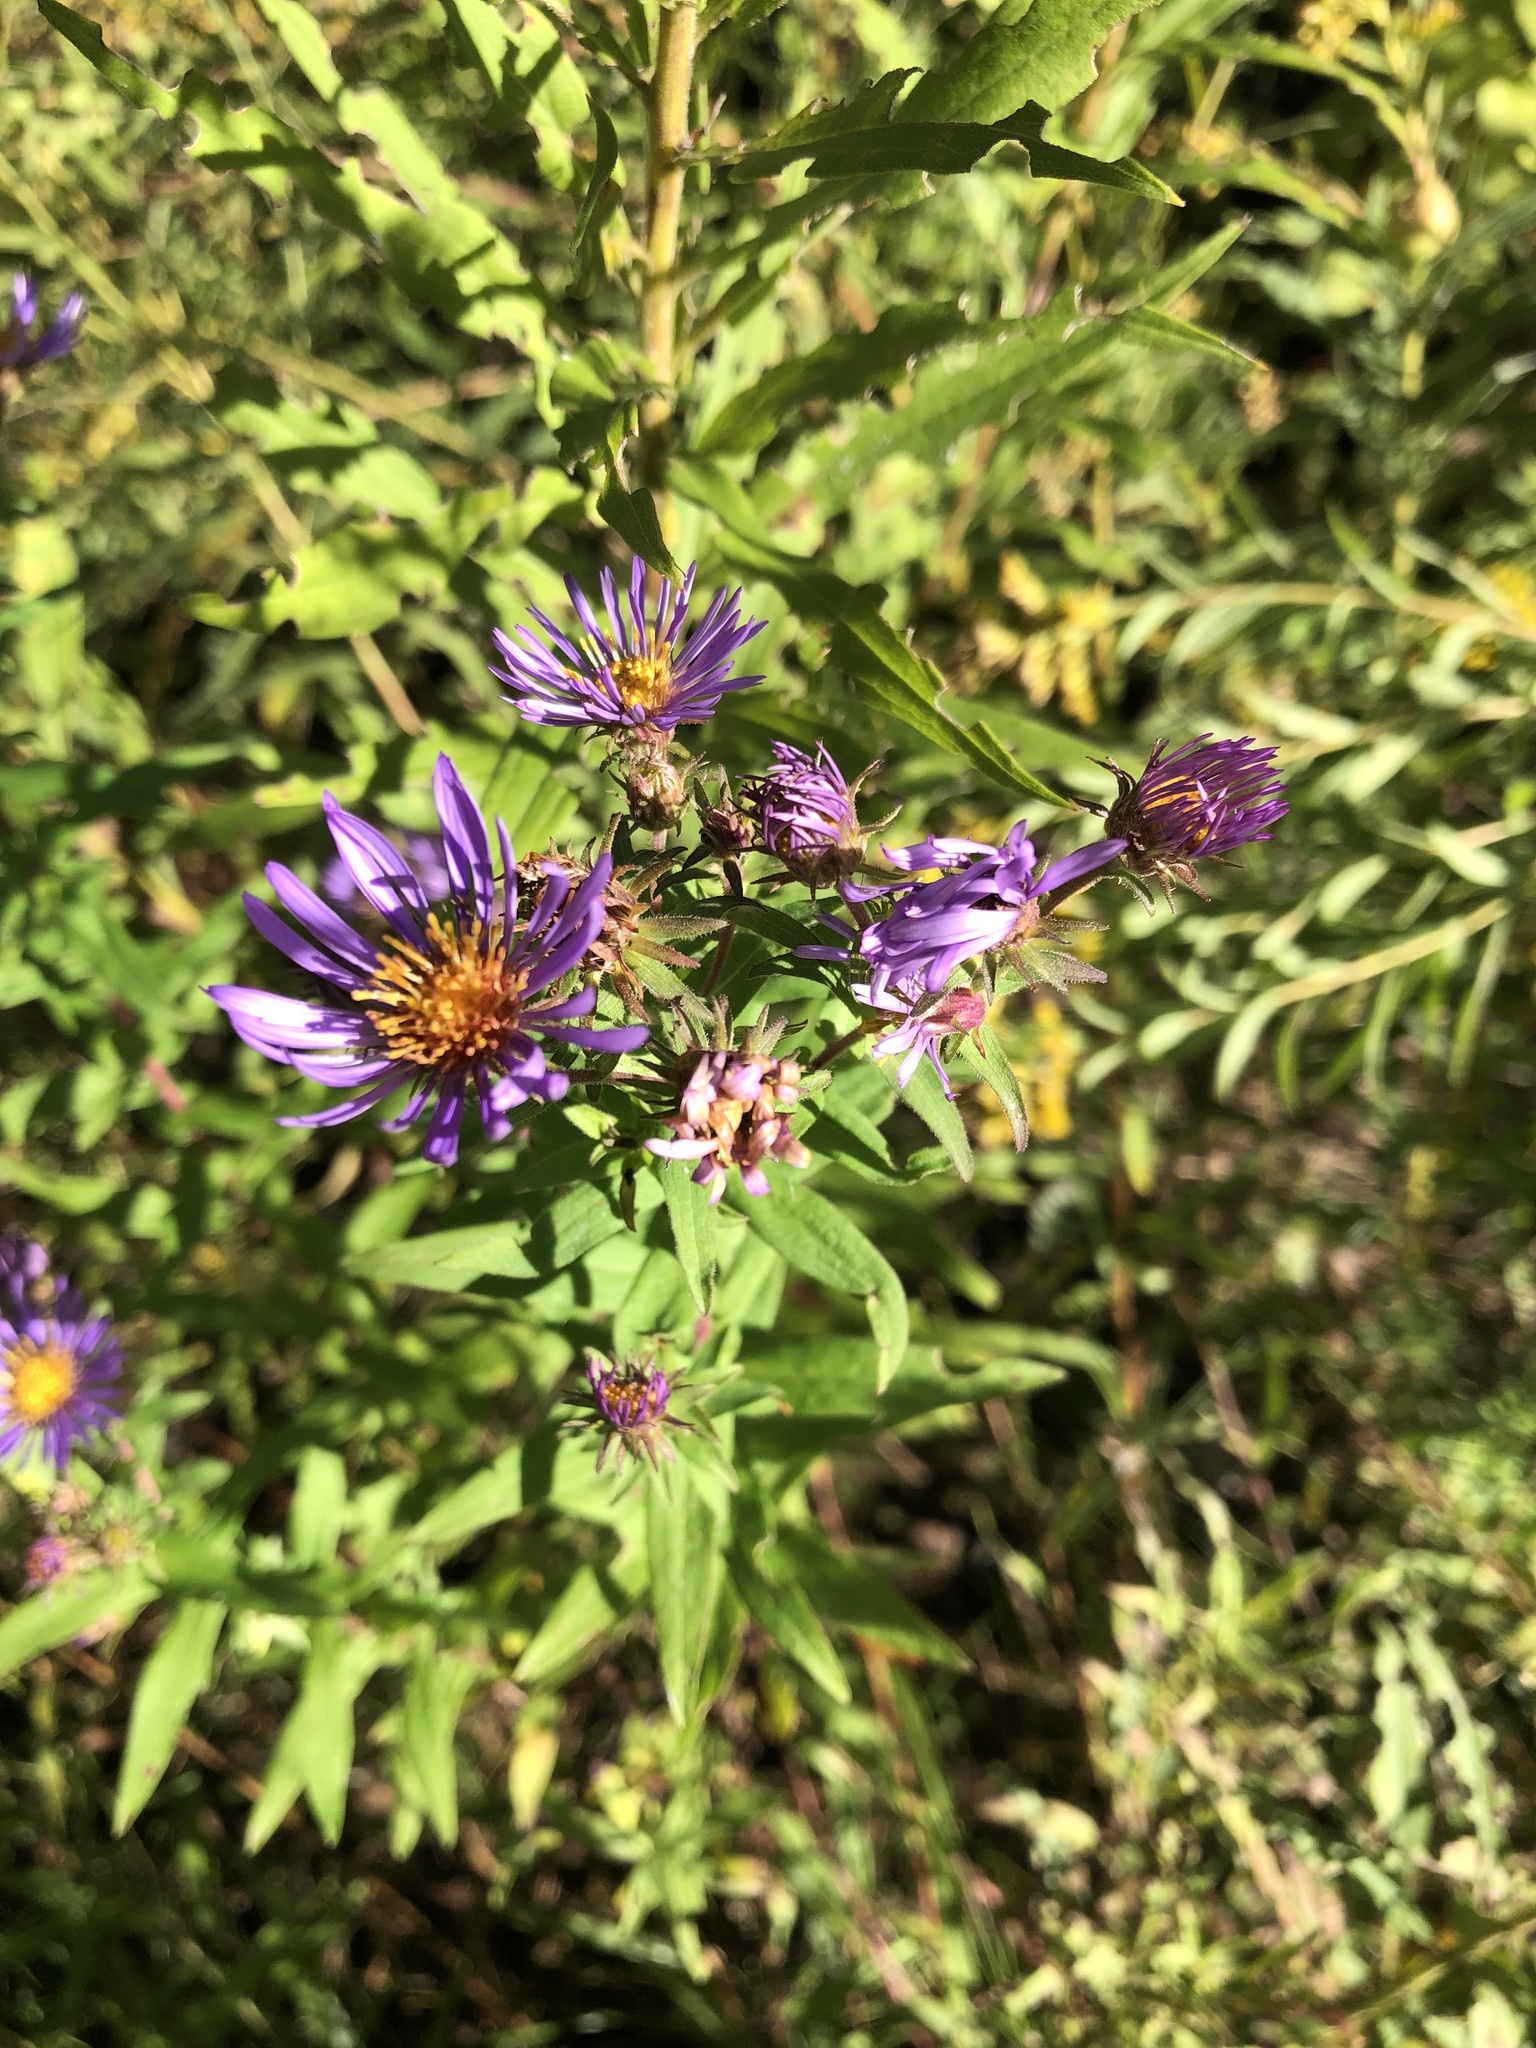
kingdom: Plantae
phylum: Tracheophyta
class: Magnoliopsida
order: Asterales
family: Asteraceae
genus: Symphyotrichum
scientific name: Symphyotrichum novae-angliae
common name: Michaelmas daisy
